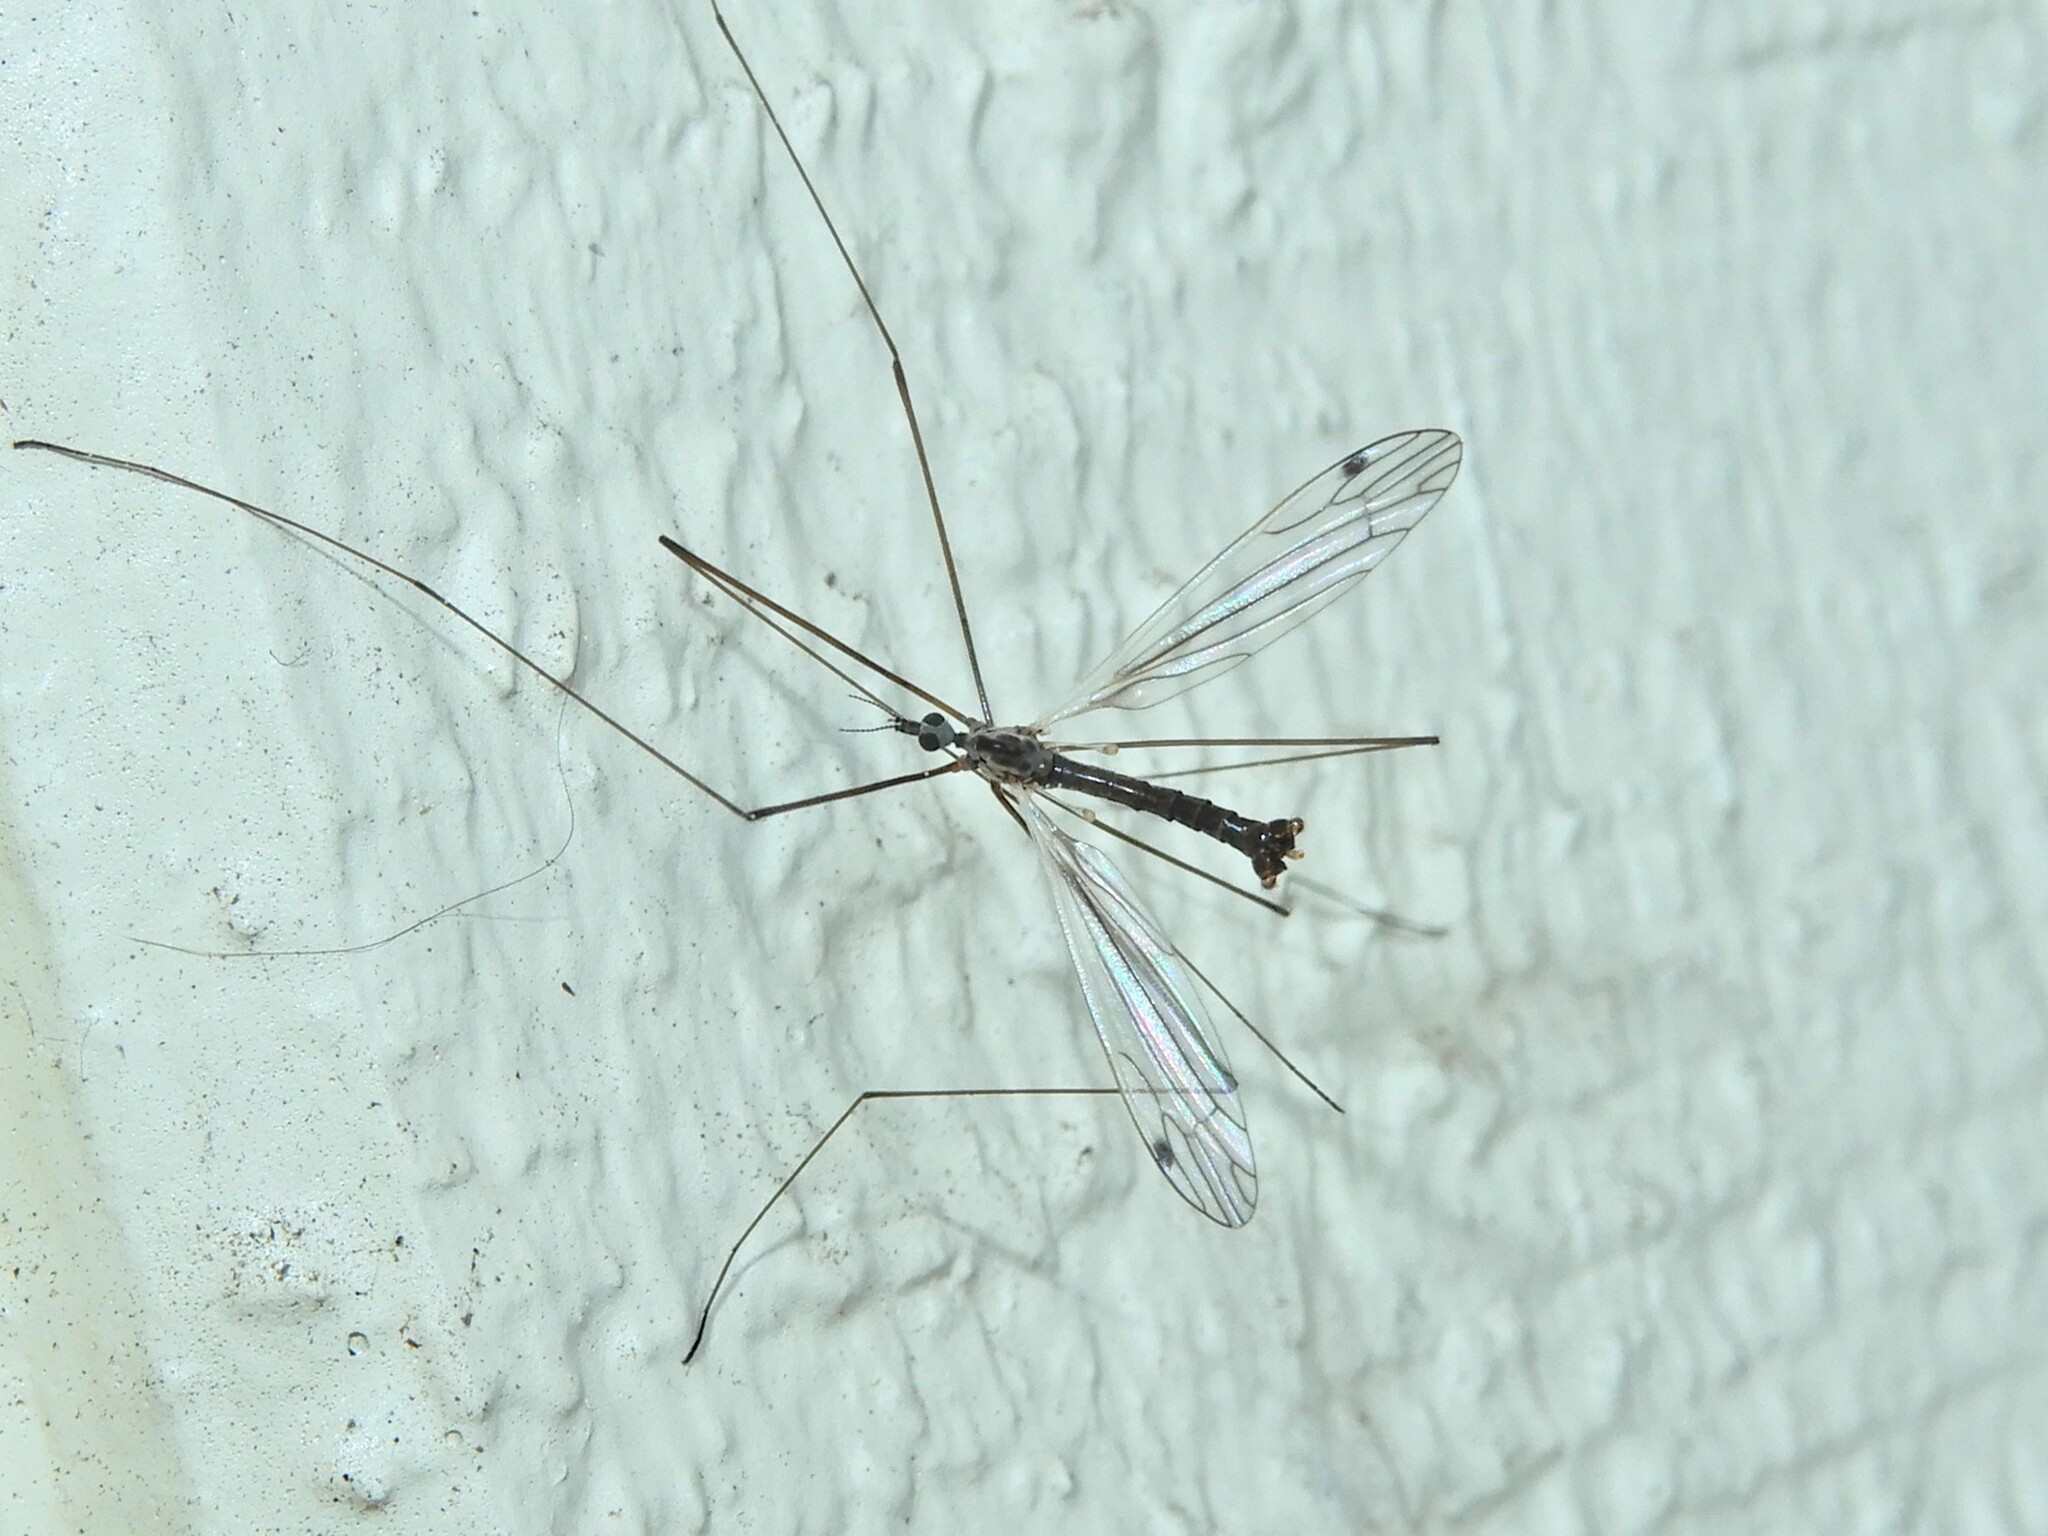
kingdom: Animalia
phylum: Arthropoda
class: Insecta
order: Diptera
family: Limoniidae
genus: Dicranomyia
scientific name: Dicranomyia aegrotans
